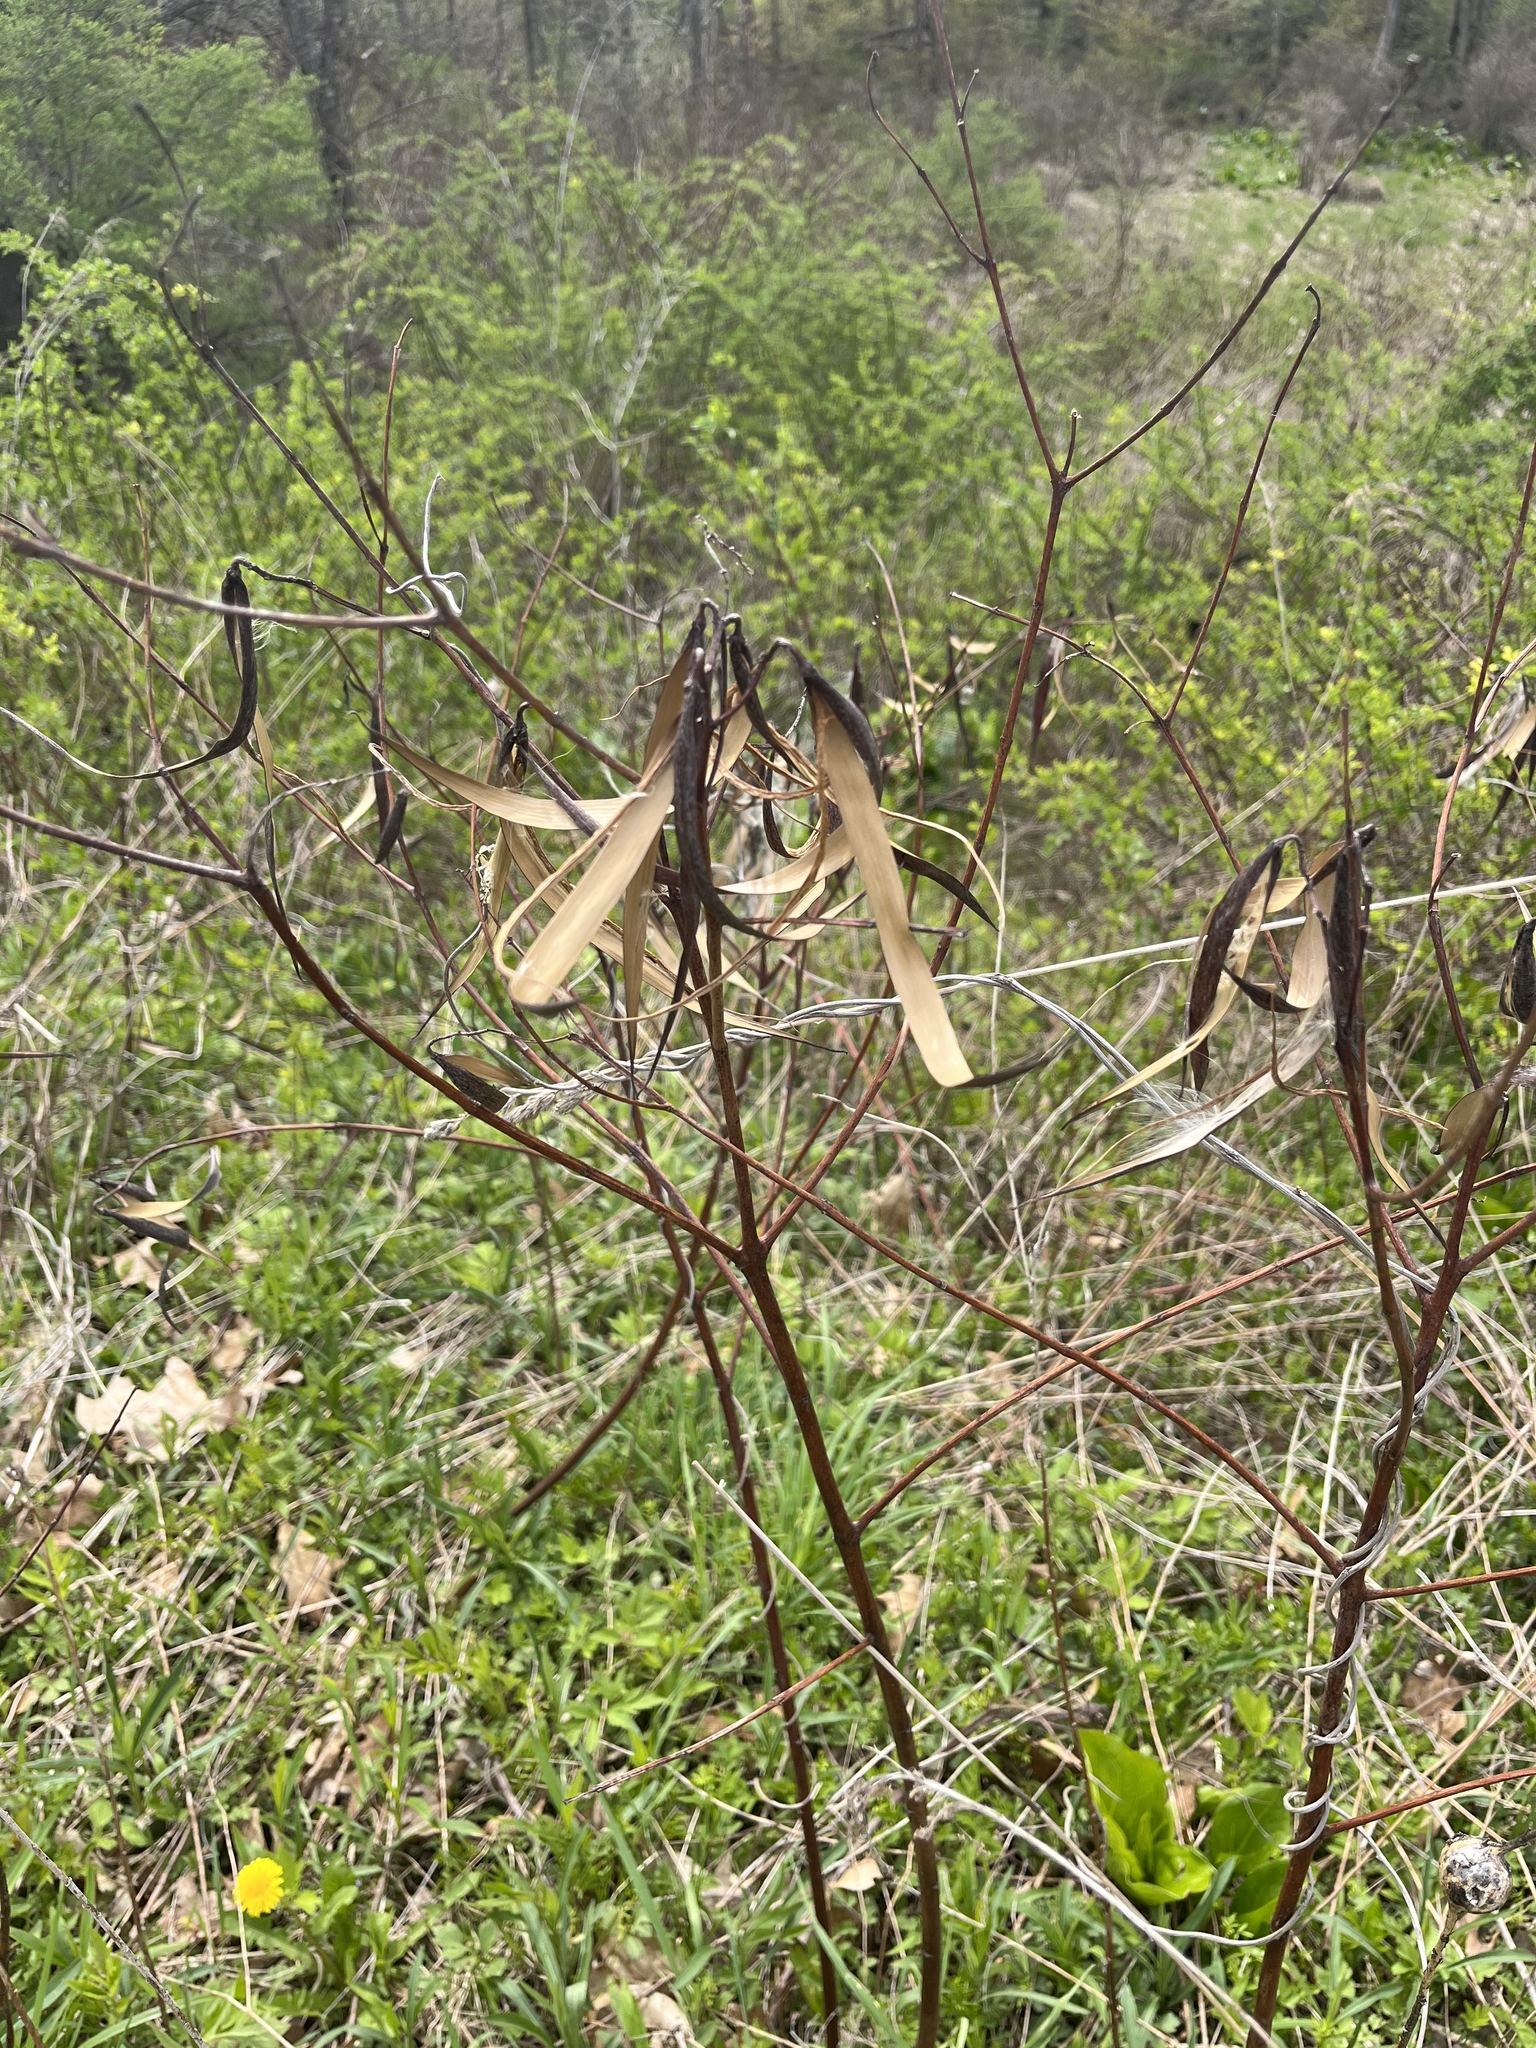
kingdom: Plantae
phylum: Tracheophyta
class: Magnoliopsida
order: Gentianales
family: Apocynaceae
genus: Apocynum
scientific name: Apocynum cannabinum
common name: Hemp dogbane
